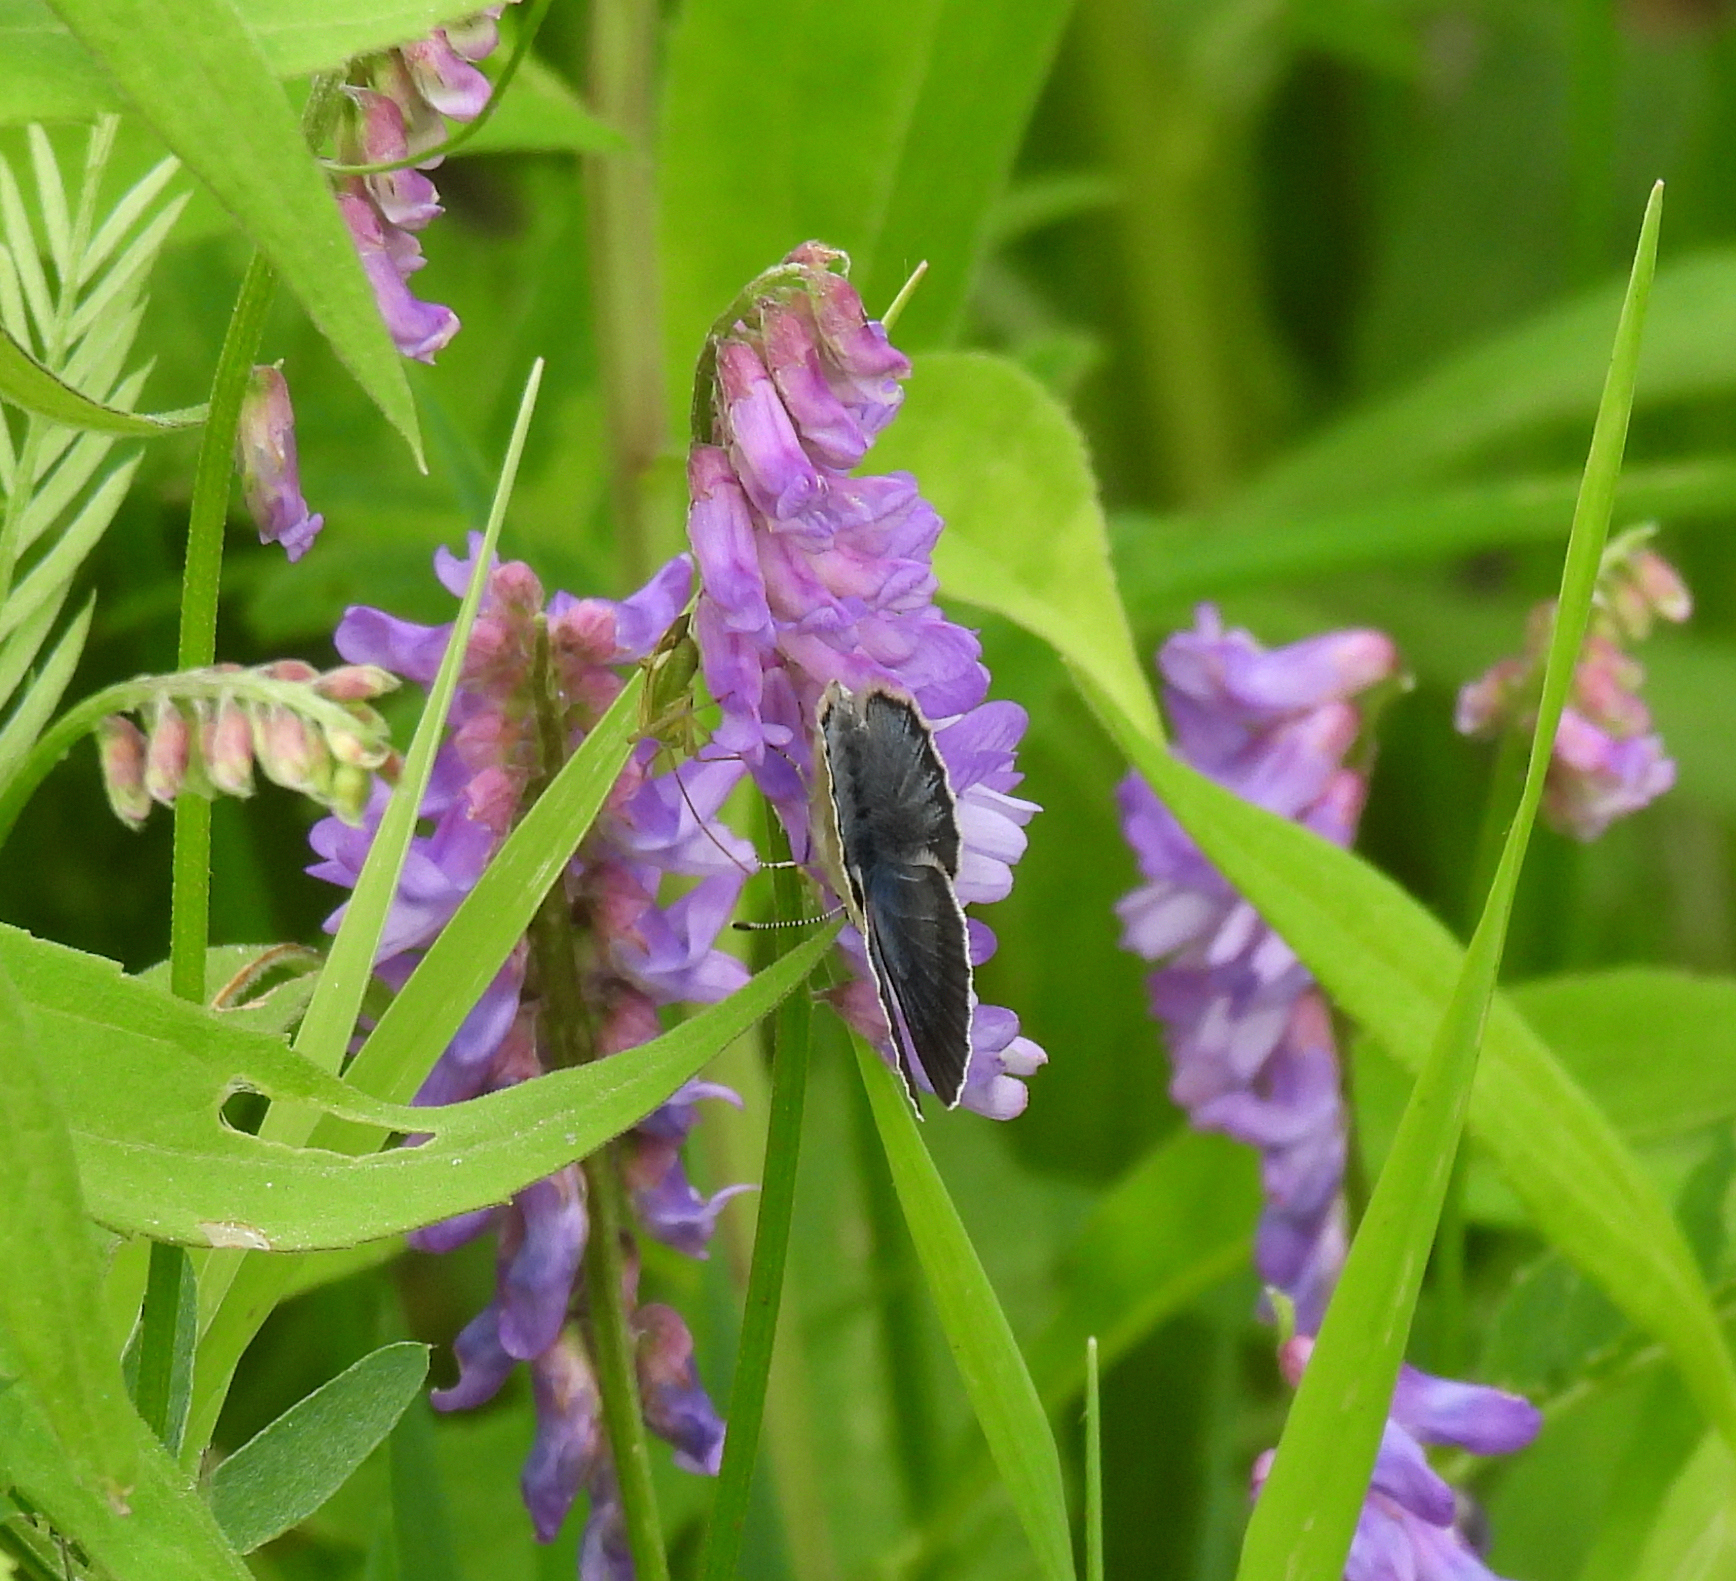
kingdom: Animalia
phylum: Arthropoda
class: Insecta
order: Lepidoptera
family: Lycaenidae
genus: Glaucopsyche
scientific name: Glaucopsyche lygdamus
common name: Silvery blue
